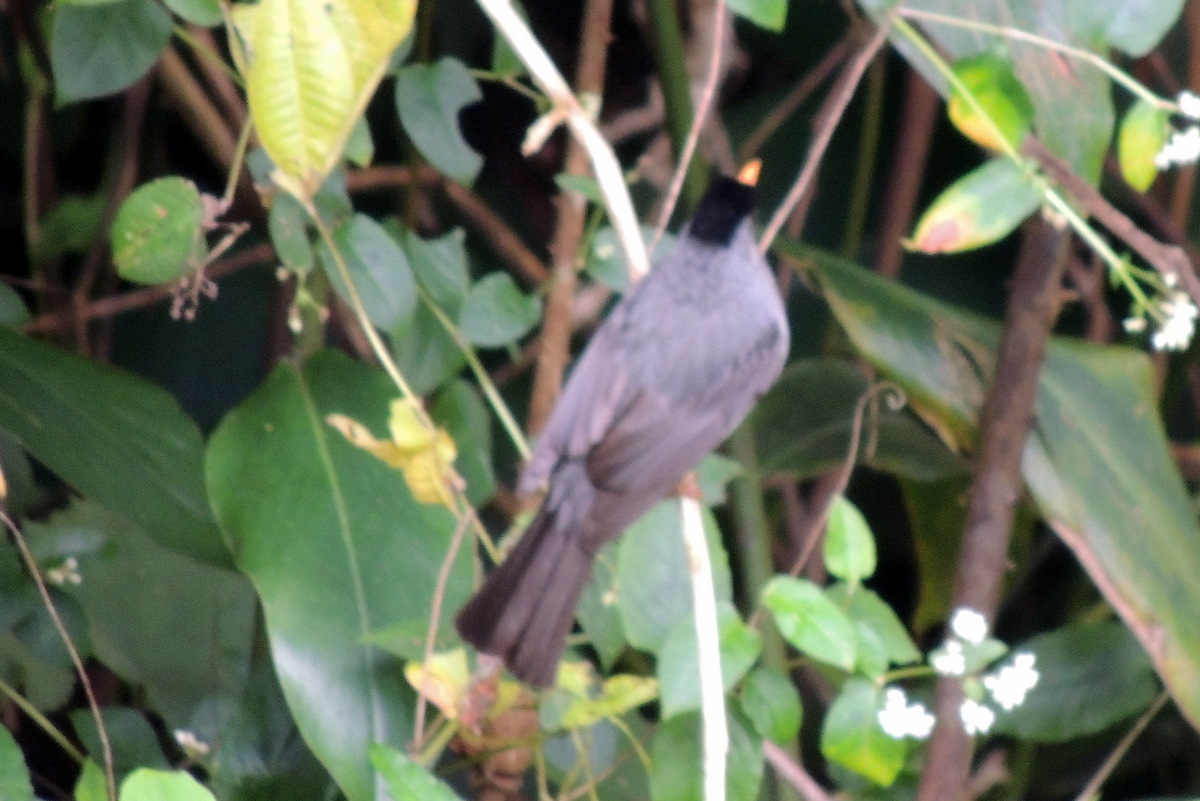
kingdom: Animalia
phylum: Chordata
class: Aves
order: Passeriformes
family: Pycnonotidae
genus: Hypsipetes
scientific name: Hypsipetes madagascariensis
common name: Malagasy bulbul
